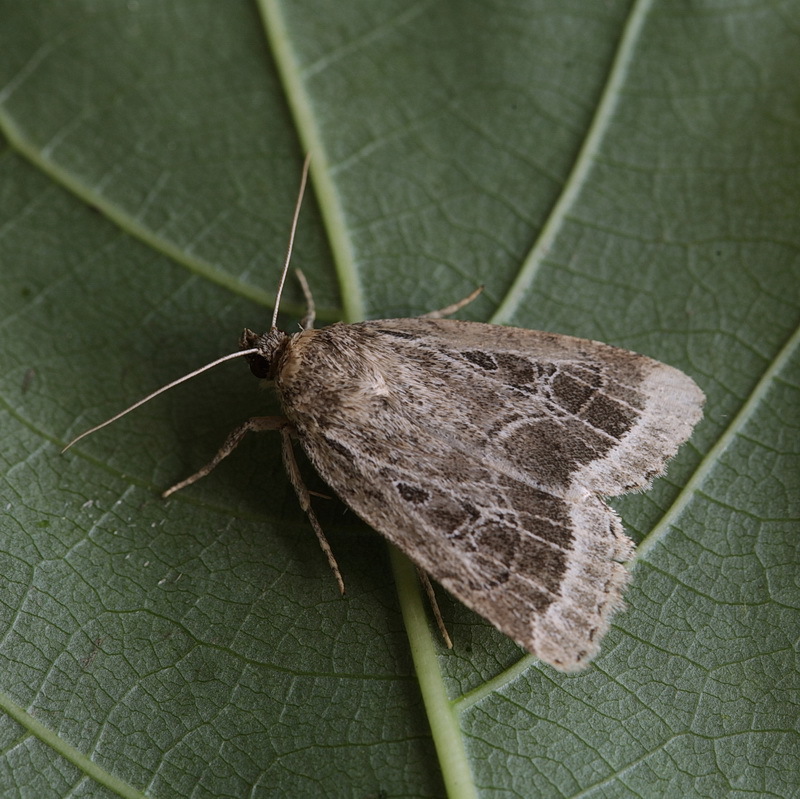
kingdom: Animalia
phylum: Arthropoda
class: Insecta
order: Lepidoptera
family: Noctuidae
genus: Amphipyra
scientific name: Amphipyra sergei
